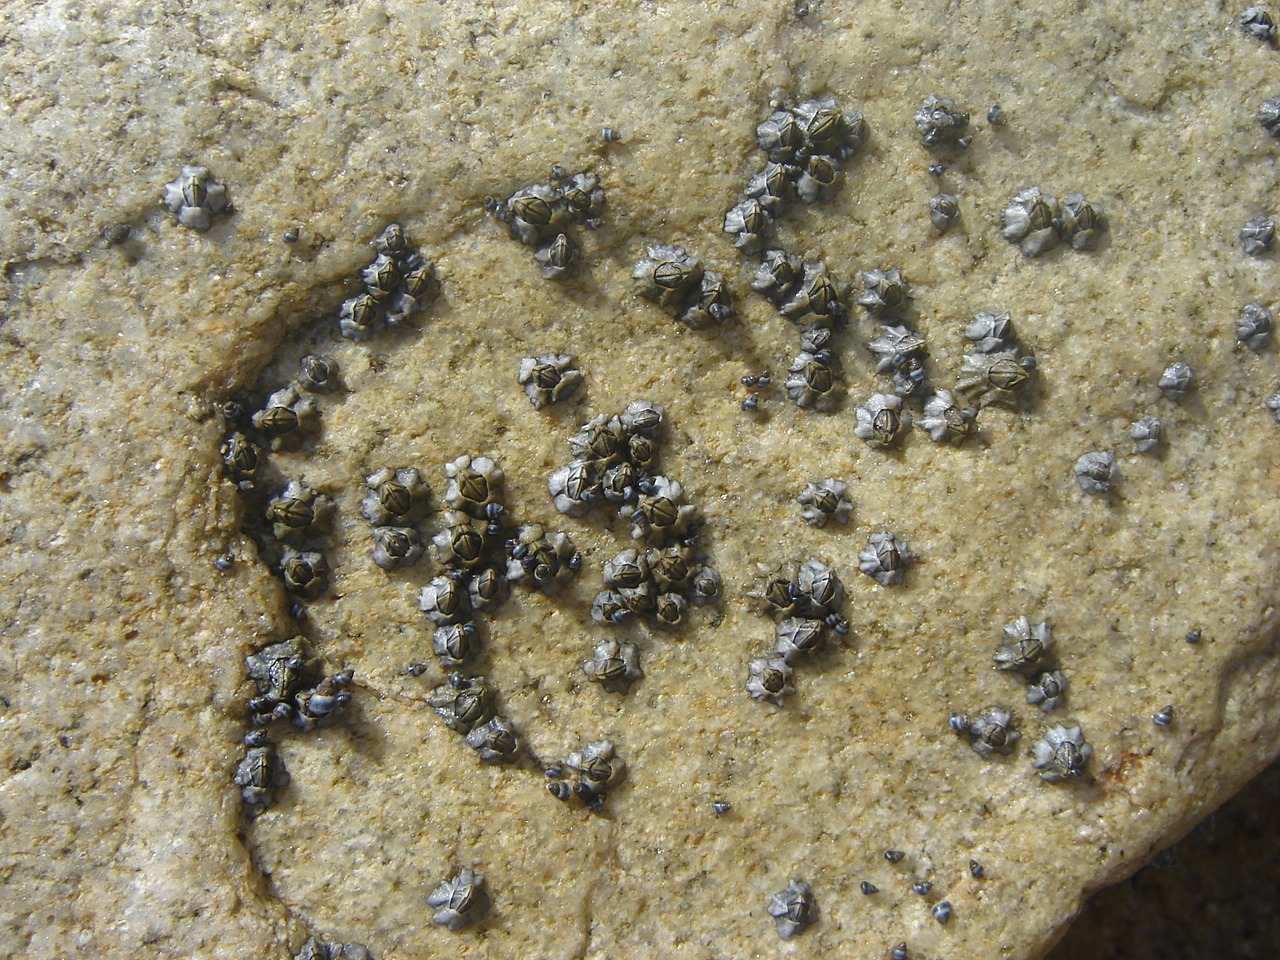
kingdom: Animalia
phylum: Arthropoda
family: Elminiidae
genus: Austrominius
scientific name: Austrominius modestus
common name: Australasian barnacle
